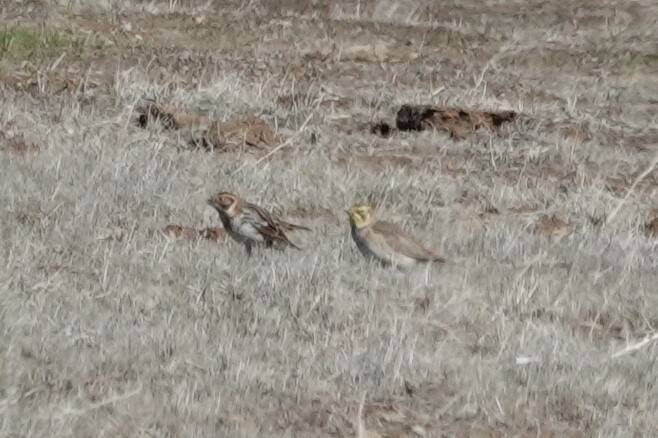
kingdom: Animalia
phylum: Chordata
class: Aves
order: Passeriformes
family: Calcariidae
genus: Calcarius
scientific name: Calcarius lapponicus
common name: Lapland longspur
